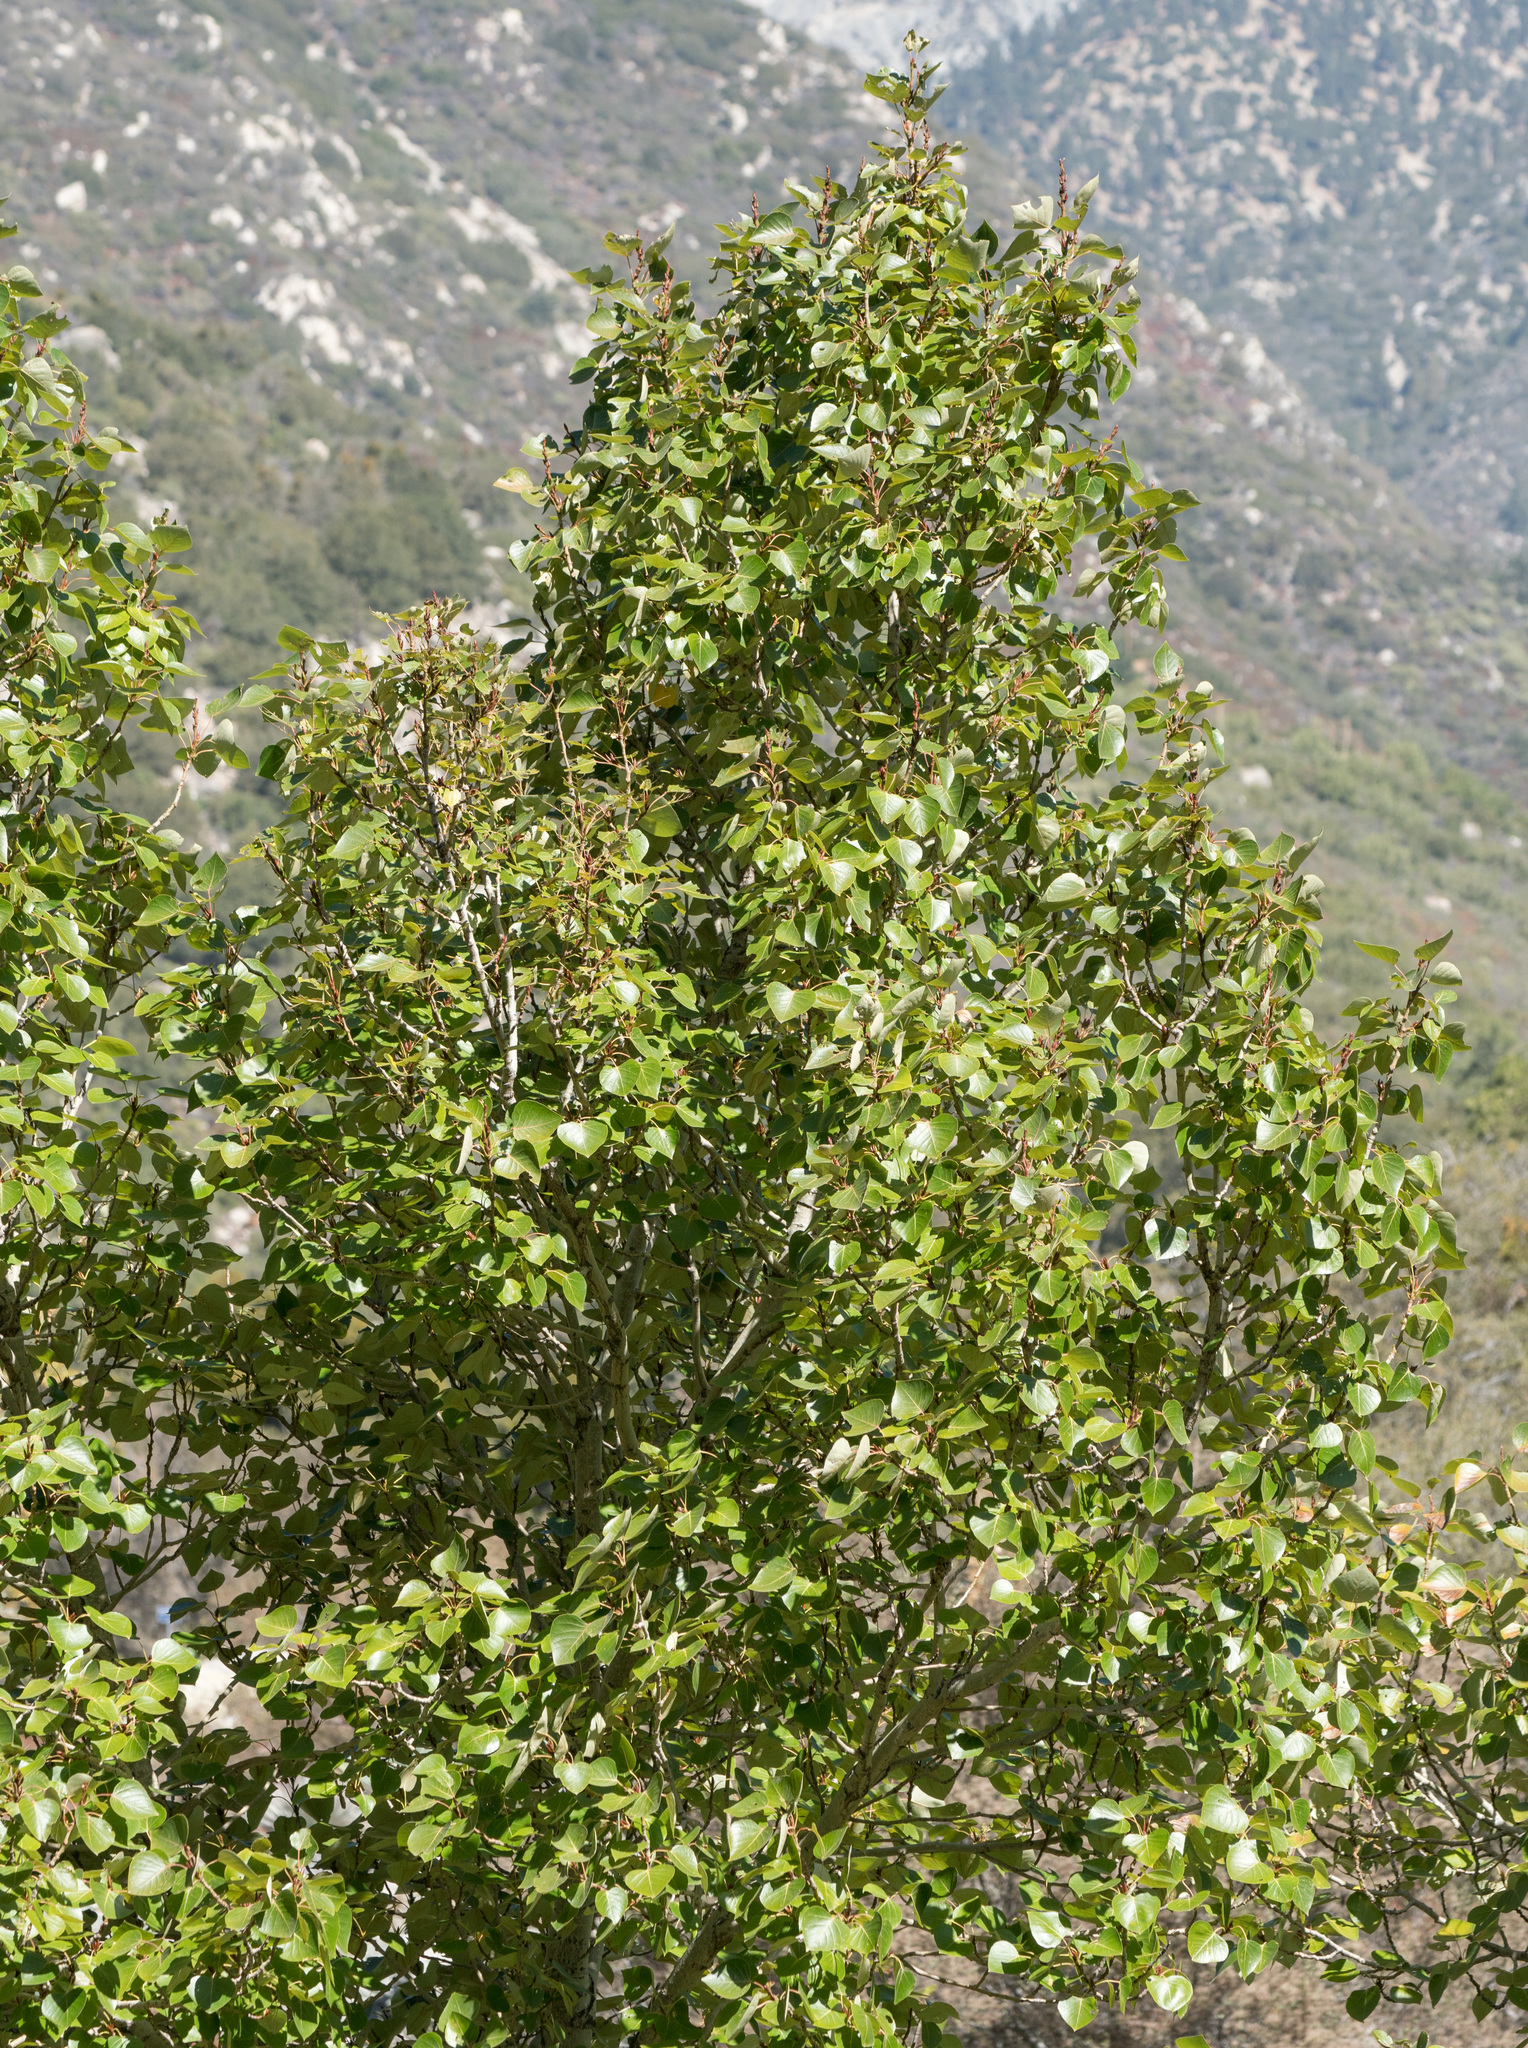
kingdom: Plantae
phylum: Tracheophyta
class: Magnoliopsida
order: Malpighiales
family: Salicaceae
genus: Populus
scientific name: Populus trichocarpa
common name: Black cottonwood
